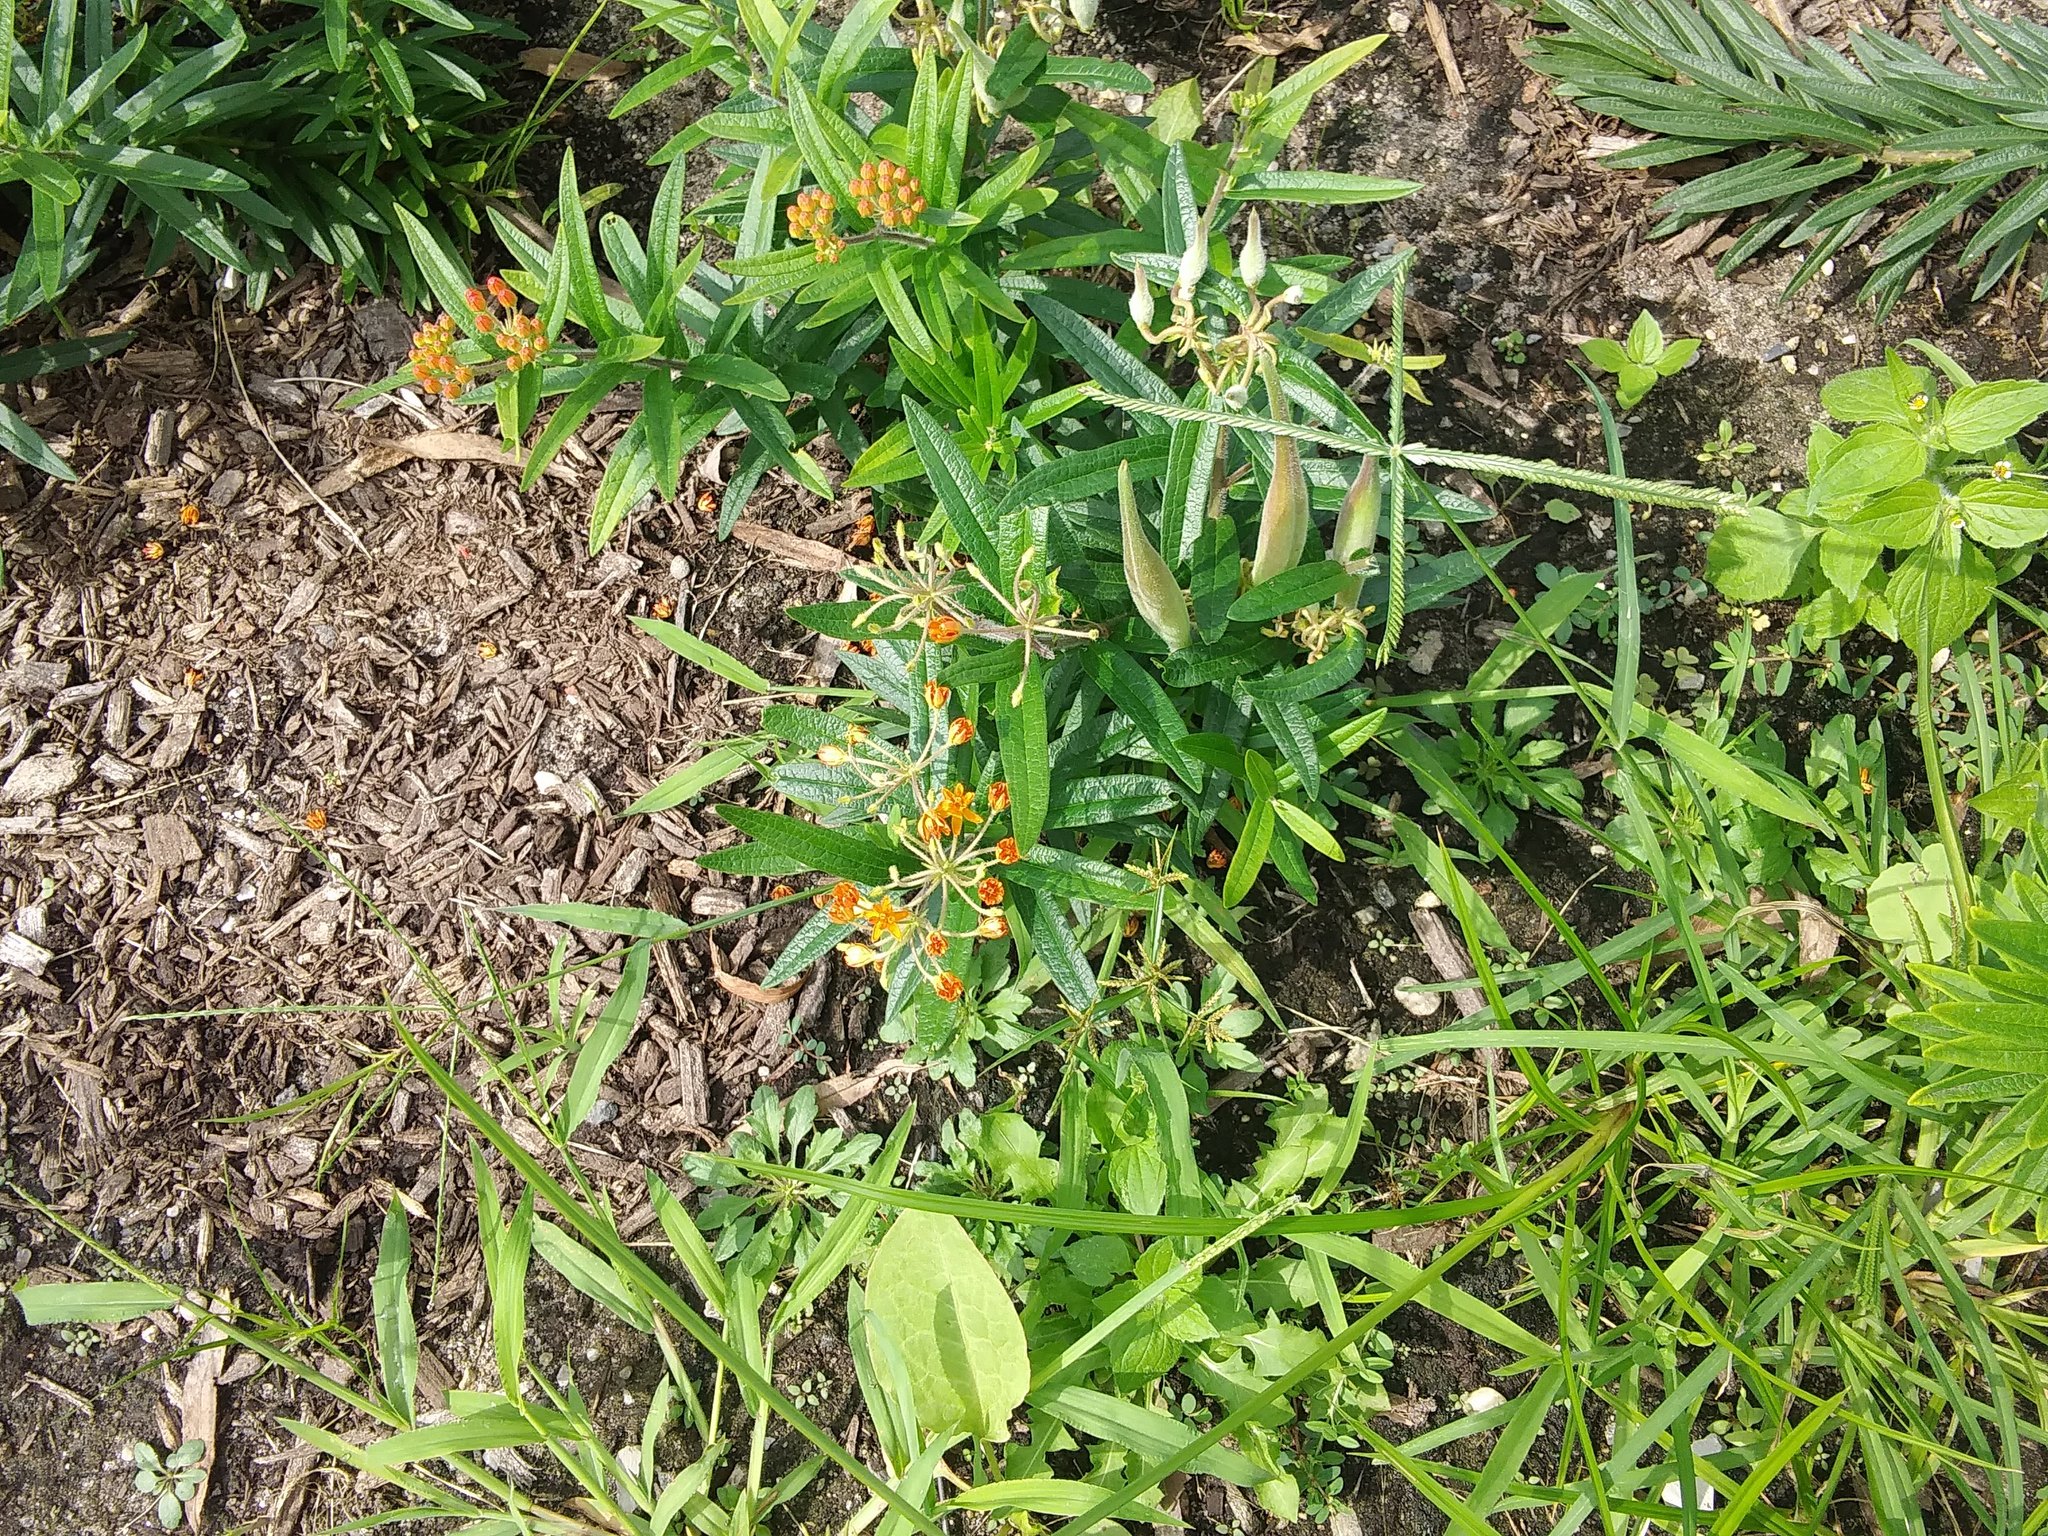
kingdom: Plantae
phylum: Tracheophyta
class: Magnoliopsida
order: Gentianales
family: Apocynaceae
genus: Asclepias
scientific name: Asclepias tuberosa
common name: Butterfly milkweed
